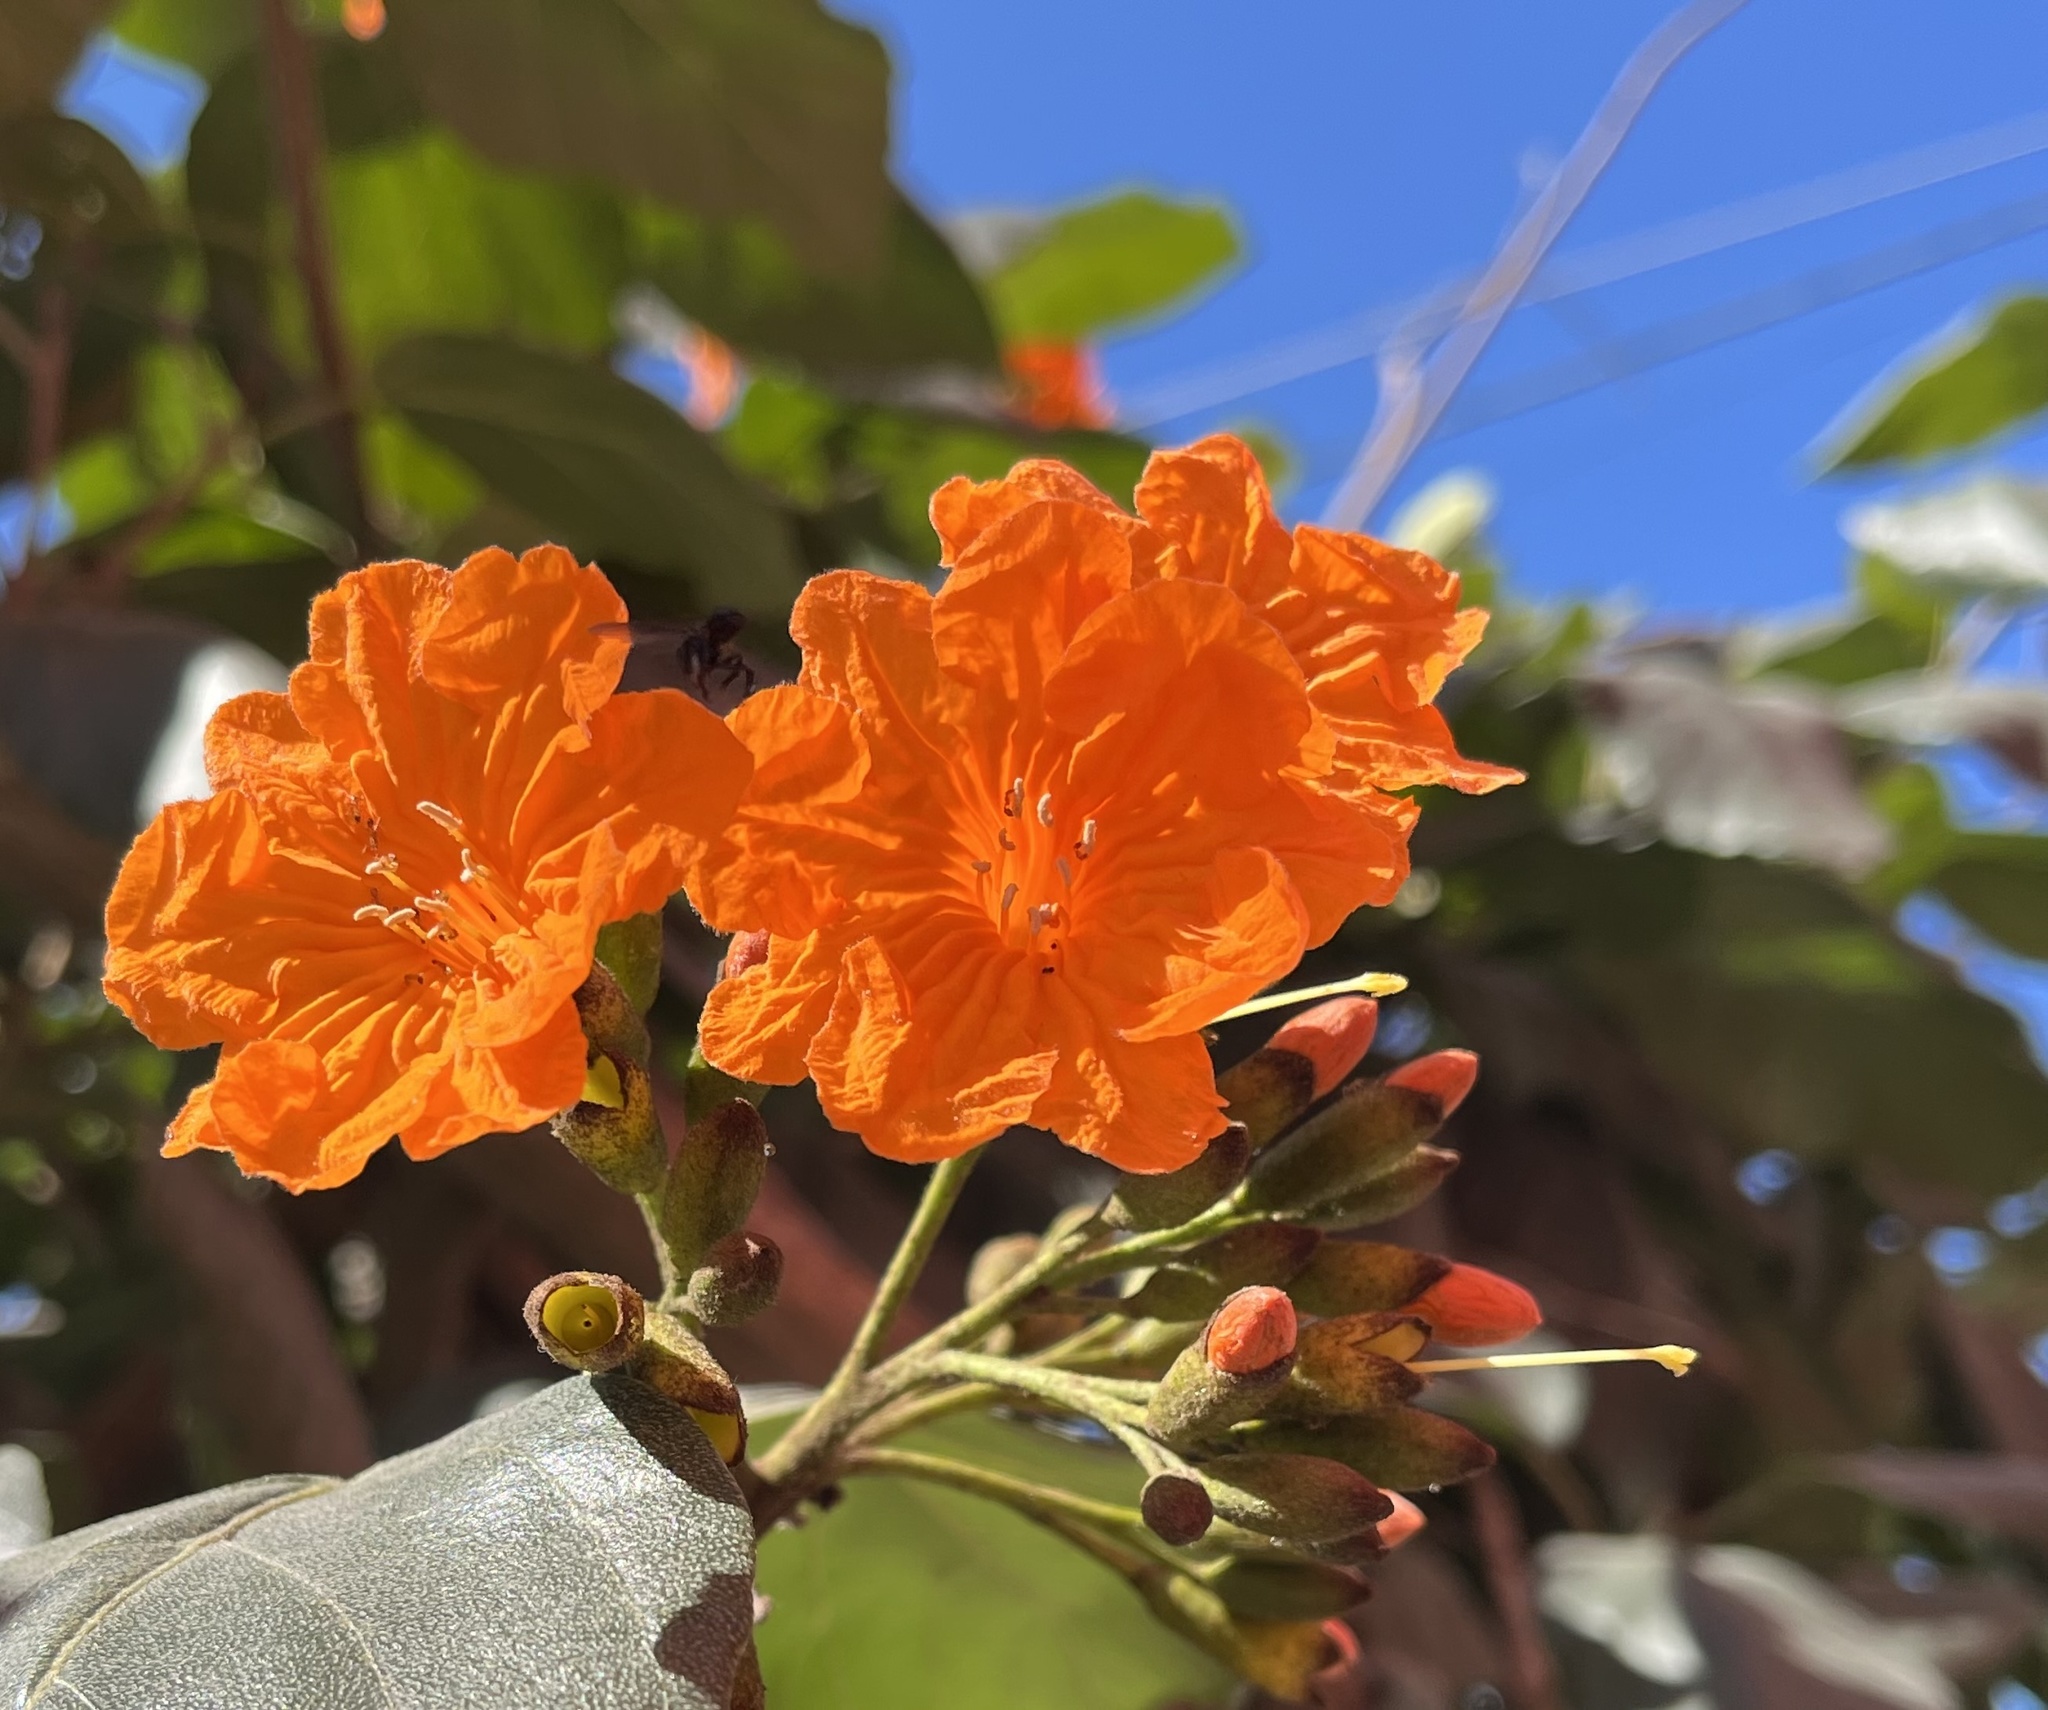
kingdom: Plantae
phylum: Tracheophyta
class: Magnoliopsida
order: Boraginales
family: Cordiaceae
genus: Cordia
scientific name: Cordia sebestena
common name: Largeleaf geigertree
